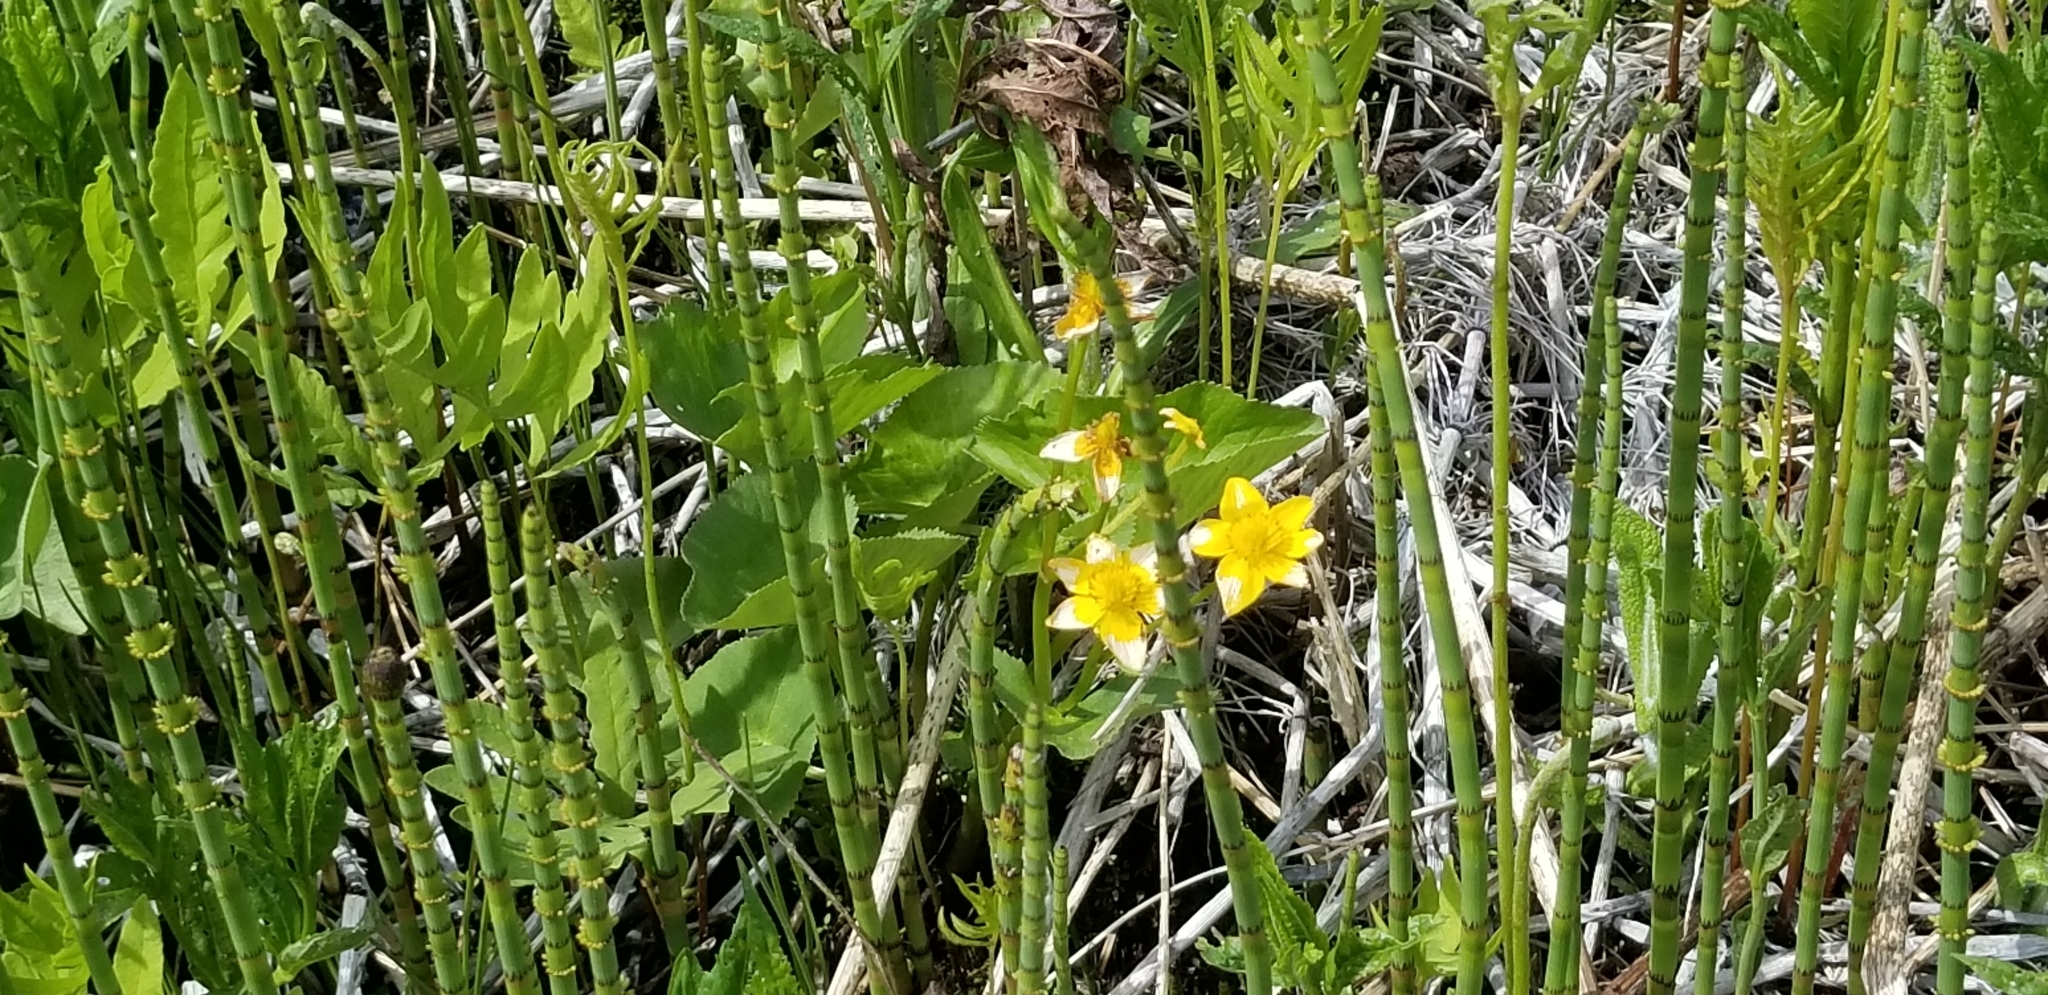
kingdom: Plantae
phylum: Tracheophyta
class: Magnoliopsida
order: Ranunculales
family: Ranunculaceae
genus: Caltha
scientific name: Caltha palustris
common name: Marsh marigold
